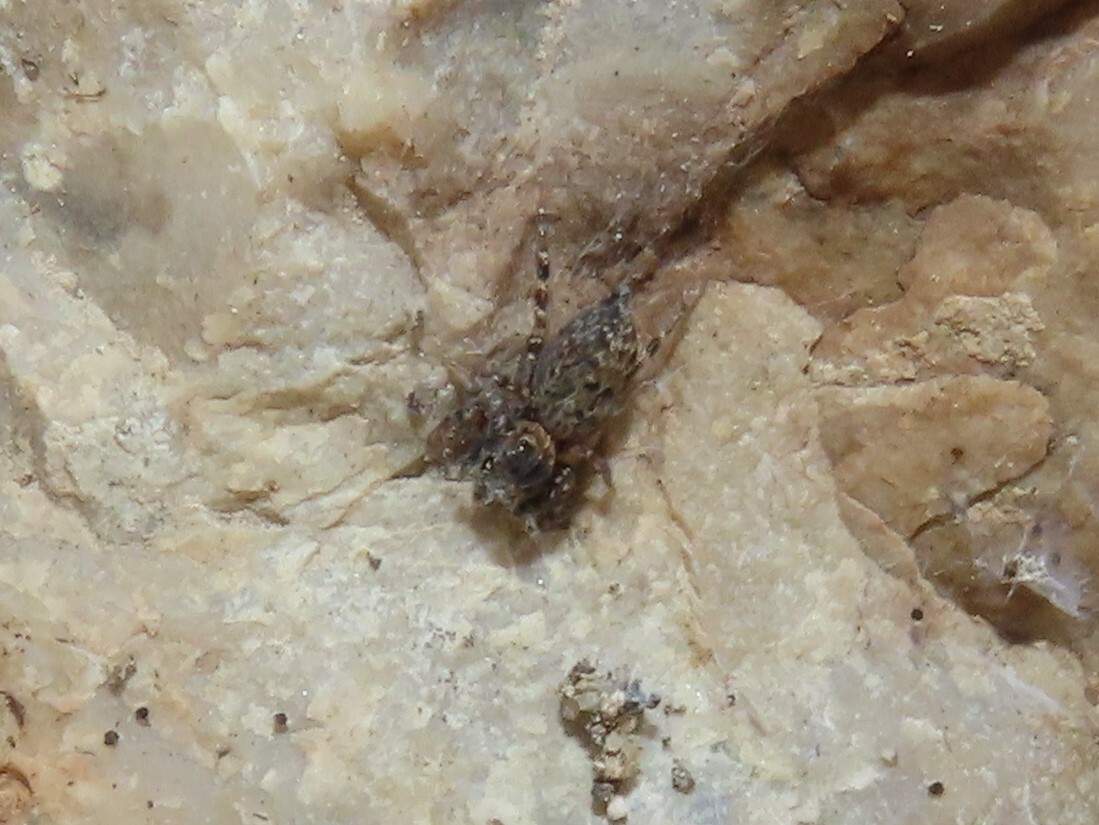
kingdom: Animalia
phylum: Arthropoda
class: Arachnida
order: Araneae
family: Salticidae
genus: Cyrba
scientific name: Cyrba algerina
